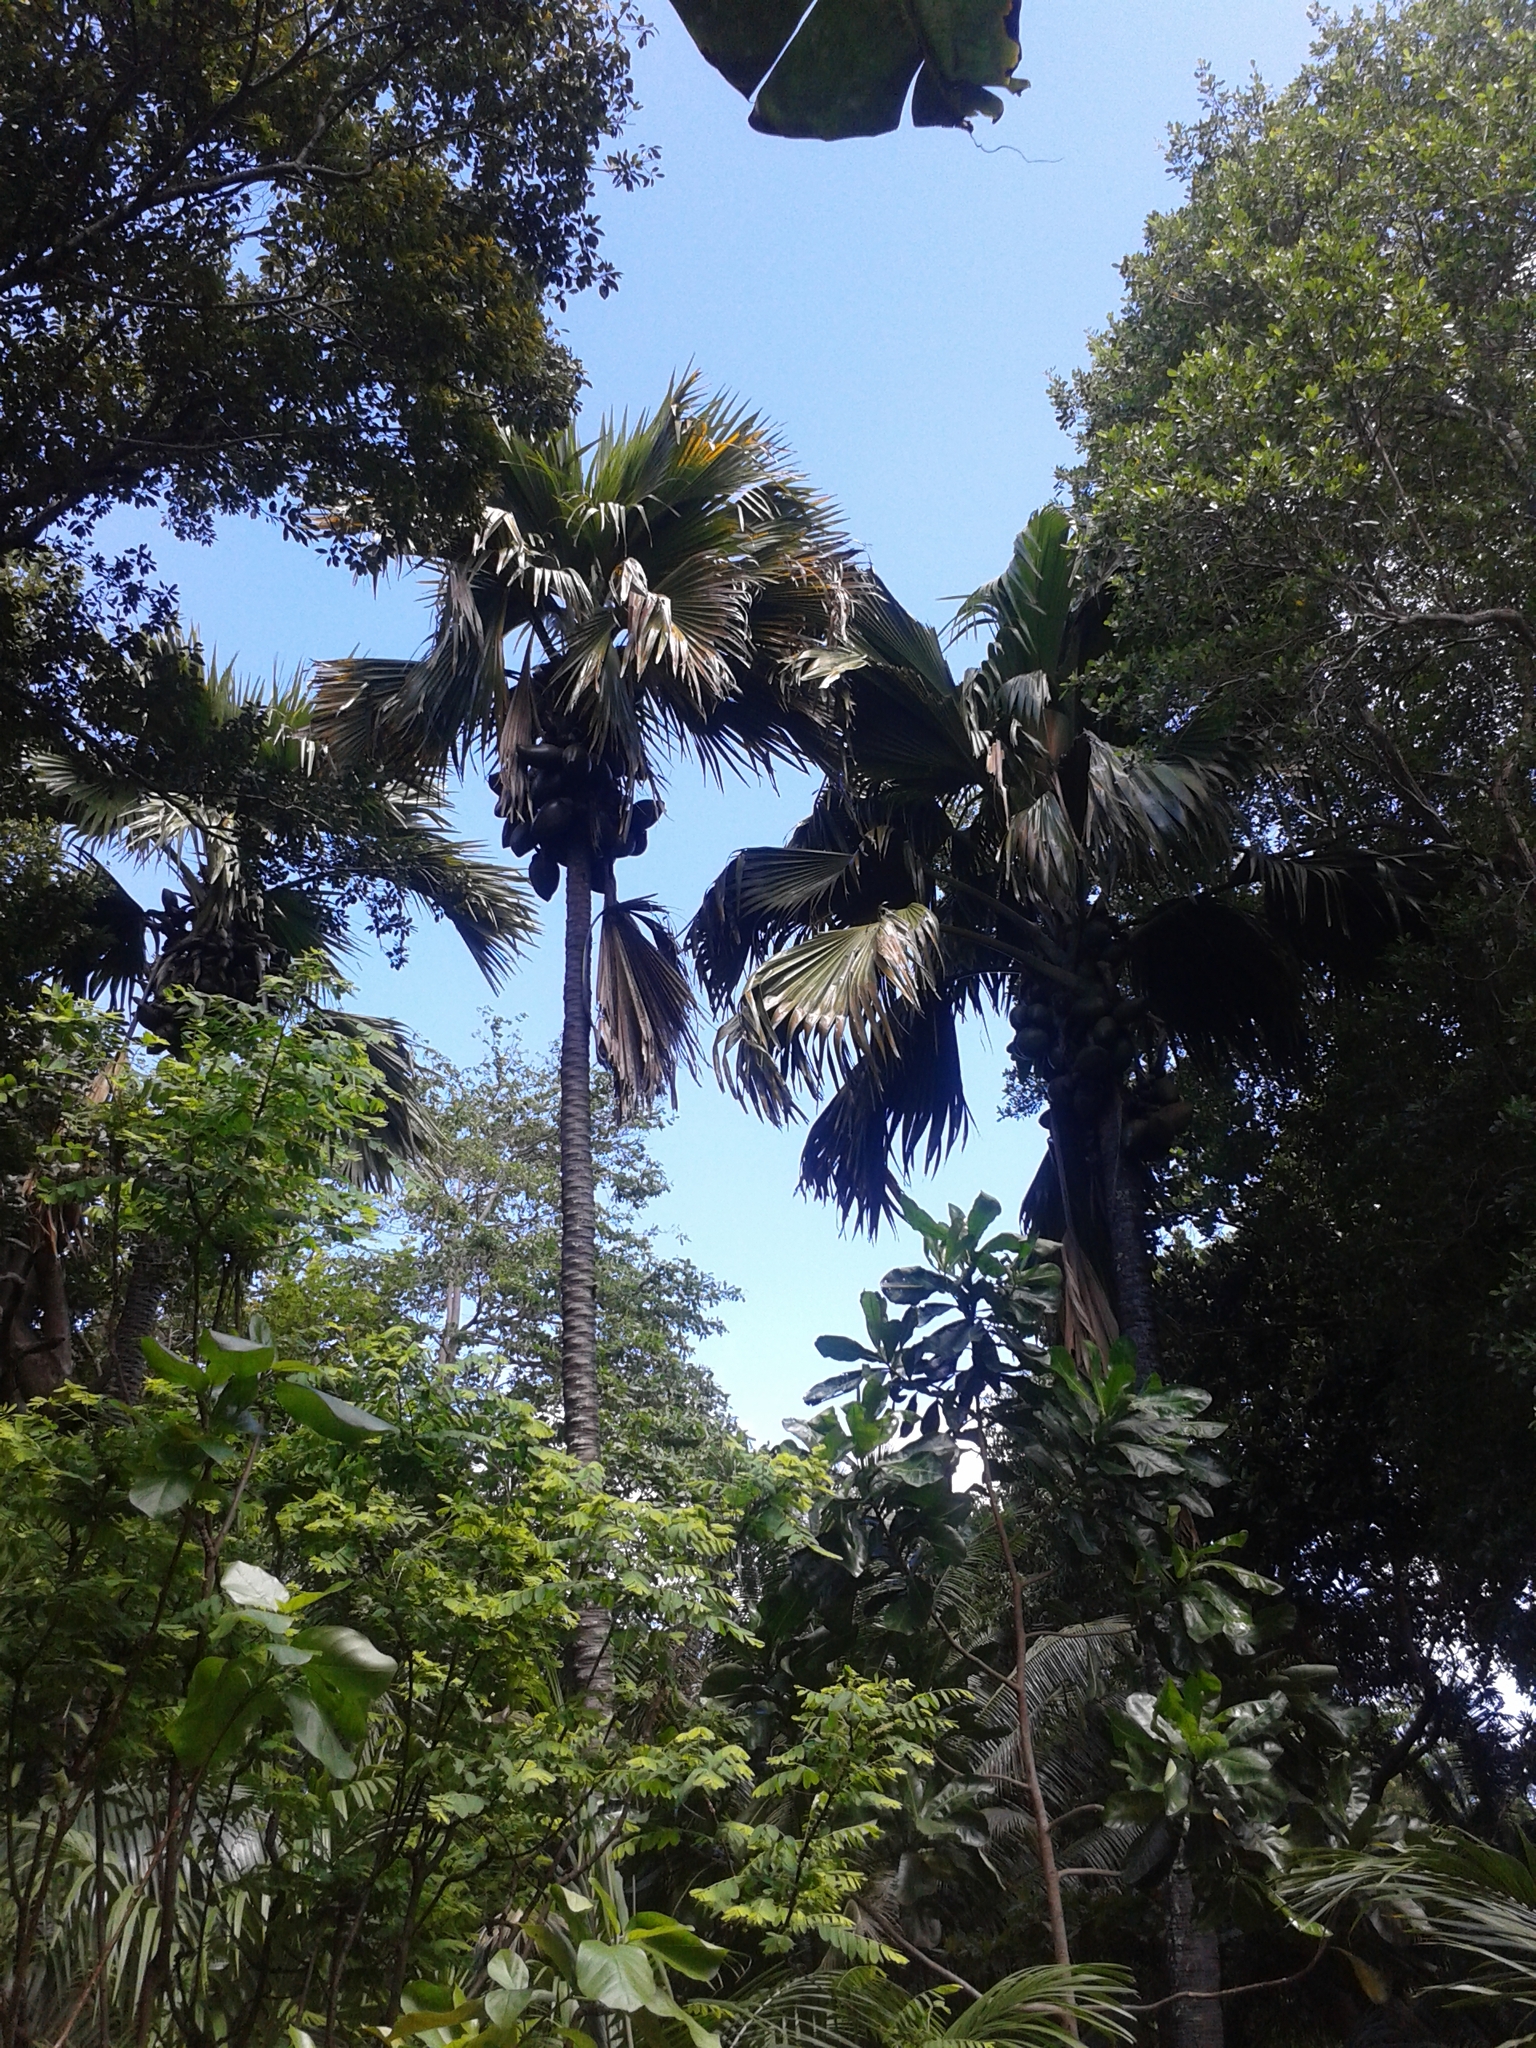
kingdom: Plantae
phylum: Tracheophyta
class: Liliopsida
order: Arecales
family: Arecaceae
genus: Lodoicea
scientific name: Lodoicea maldivica
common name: Double coconut palm
